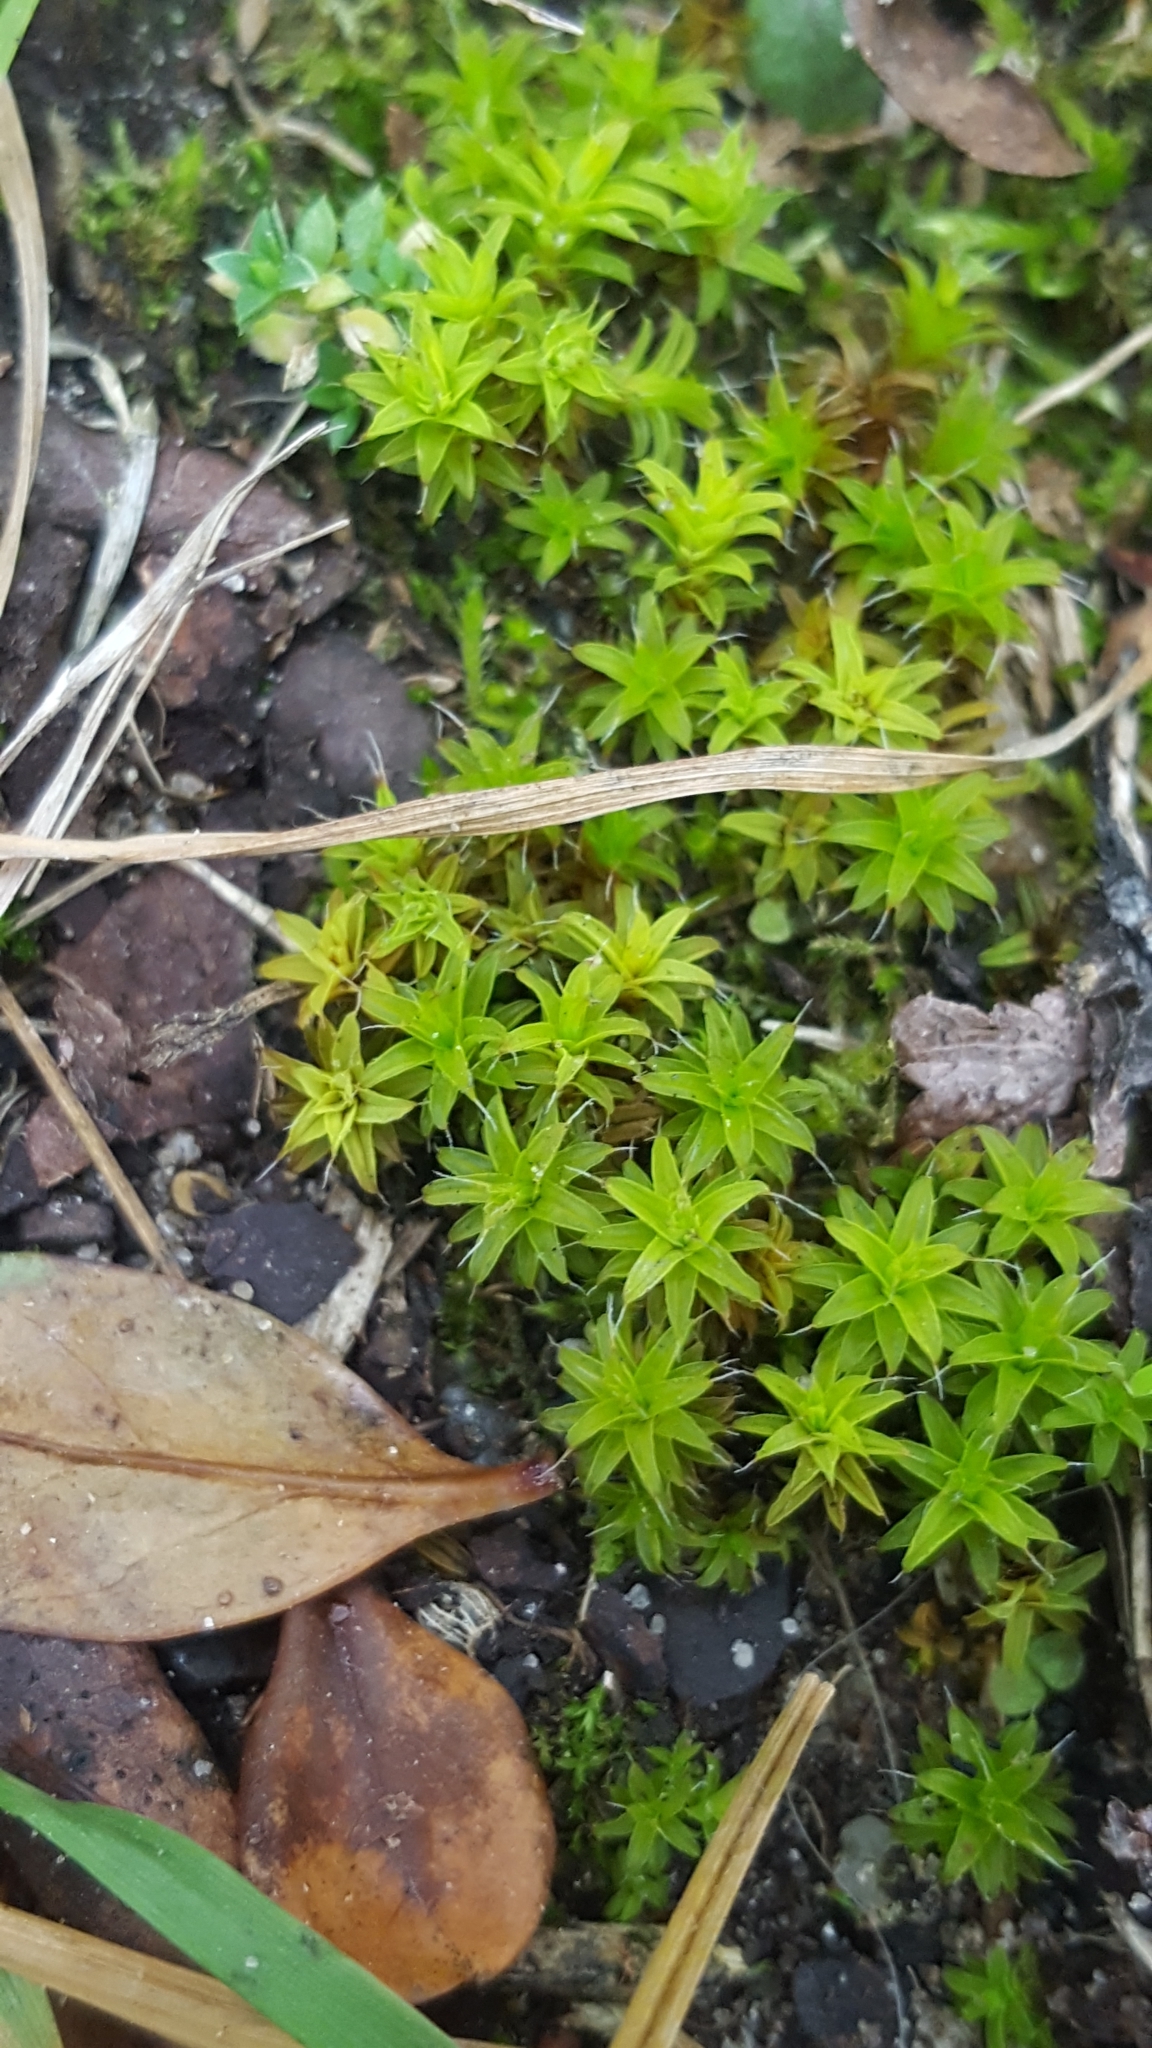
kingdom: Plantae
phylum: Bryophyta
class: Bryopsida
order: Pottiales
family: Pottiaceae
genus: Syntrichia
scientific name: Syntrichia ruralis
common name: Sidewalk screw moss
